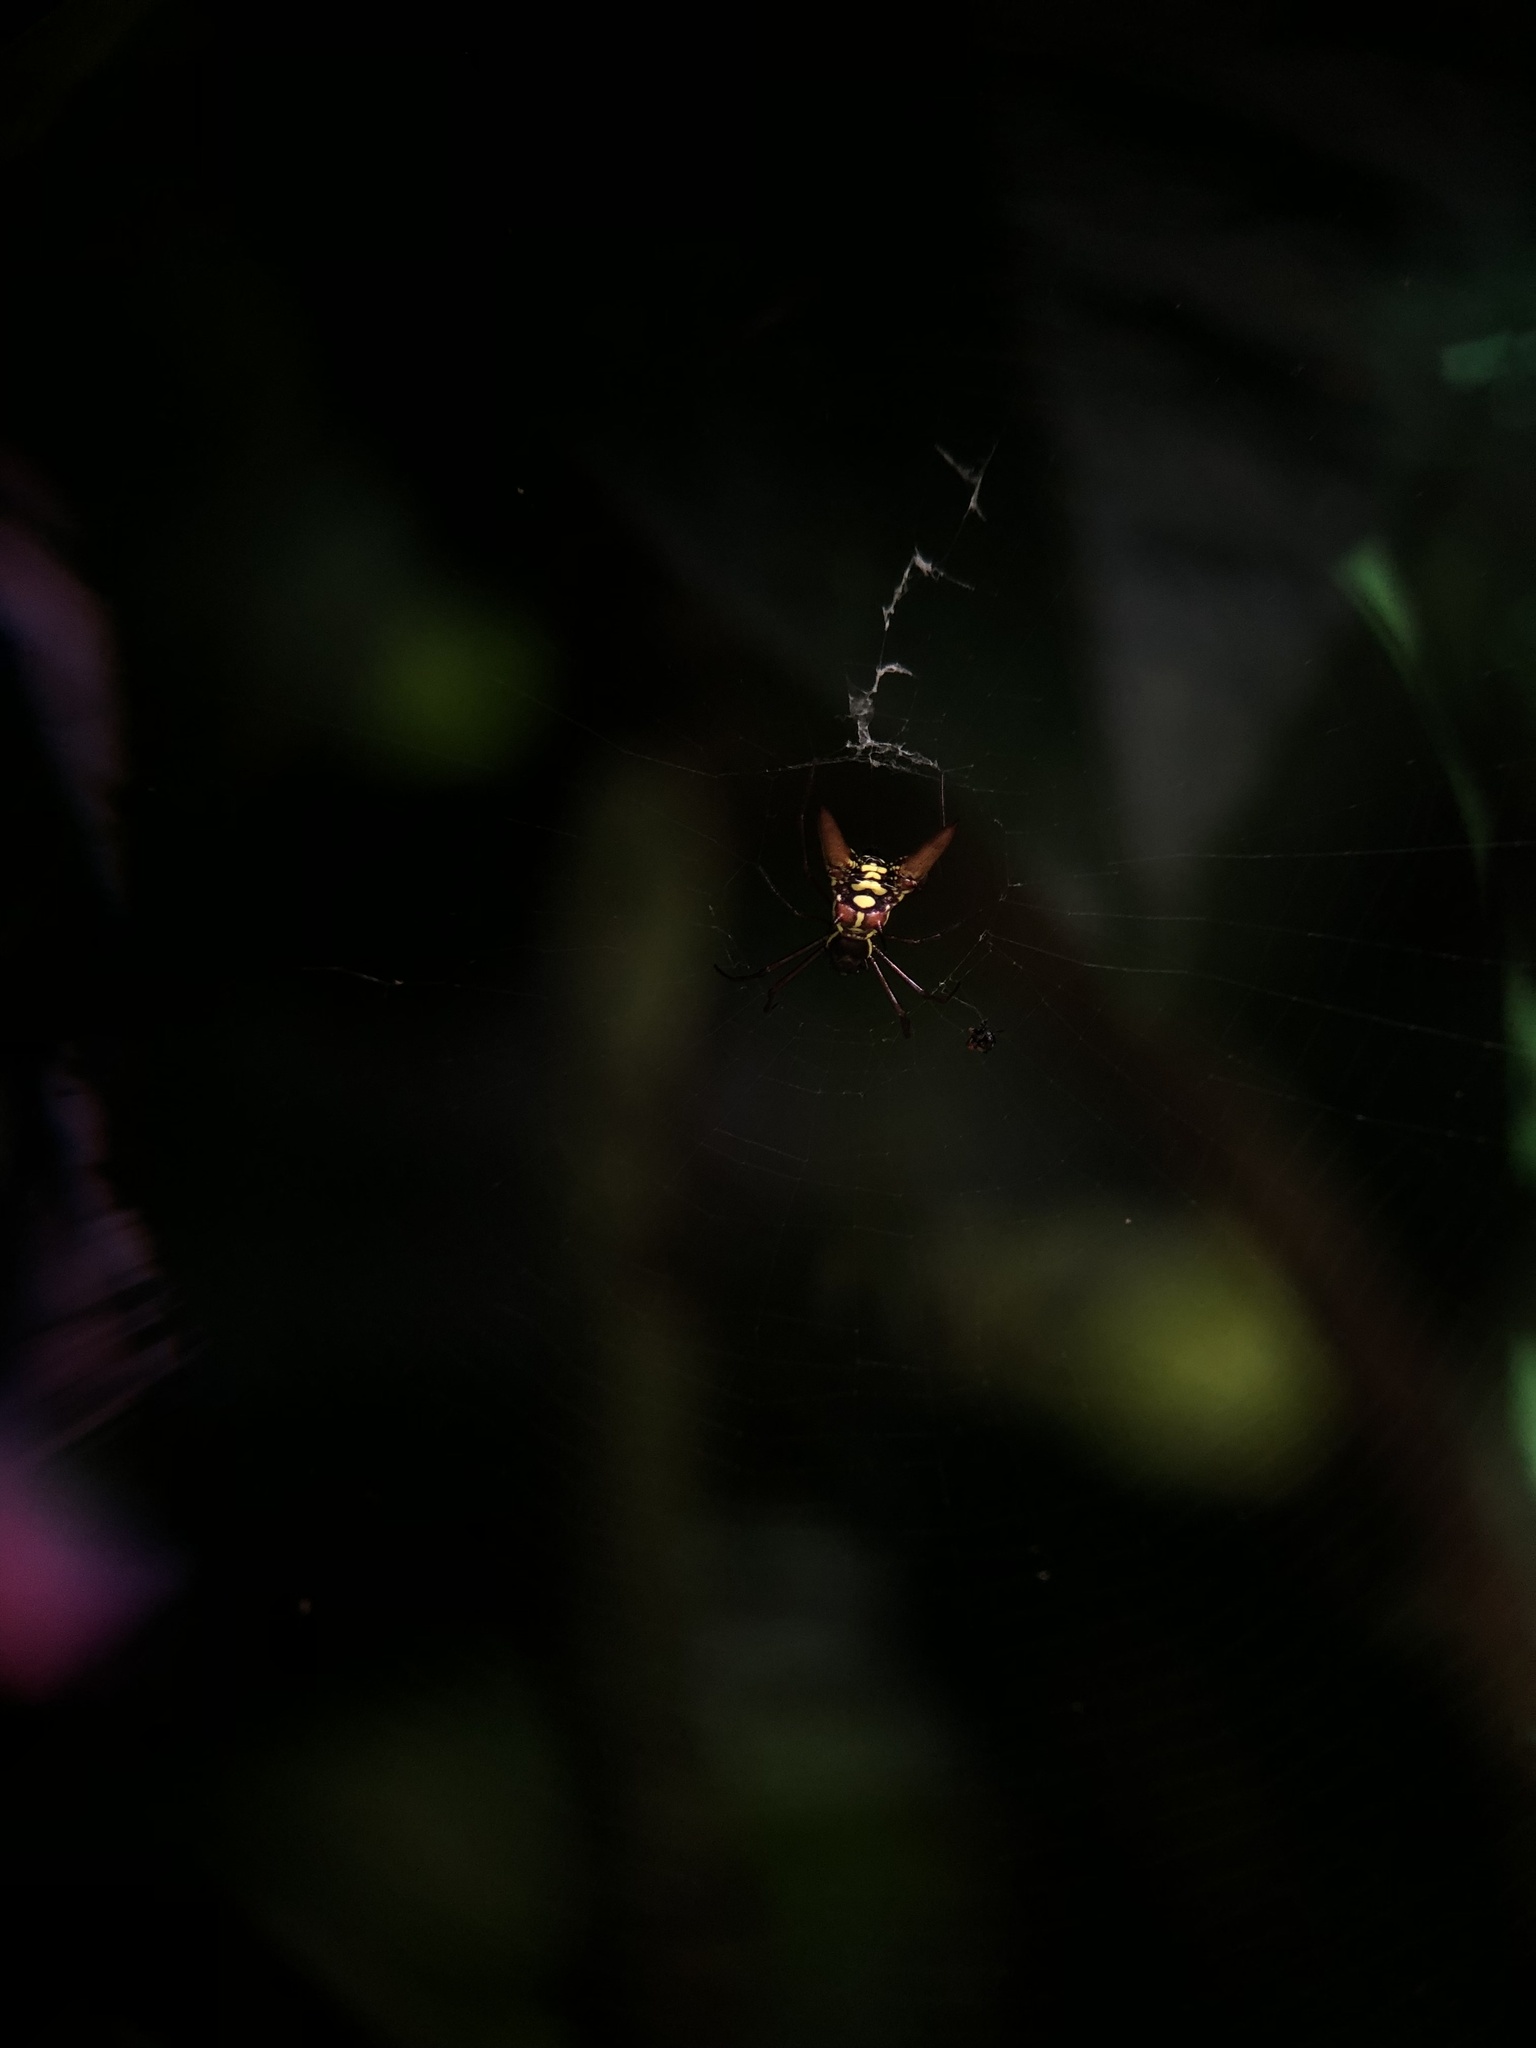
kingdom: Animalia
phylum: Arthropoda
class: Arachnida
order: Araneae
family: Araneidae
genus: Micrathena
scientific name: Micrathena sexspinosa
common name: Orb weavers
